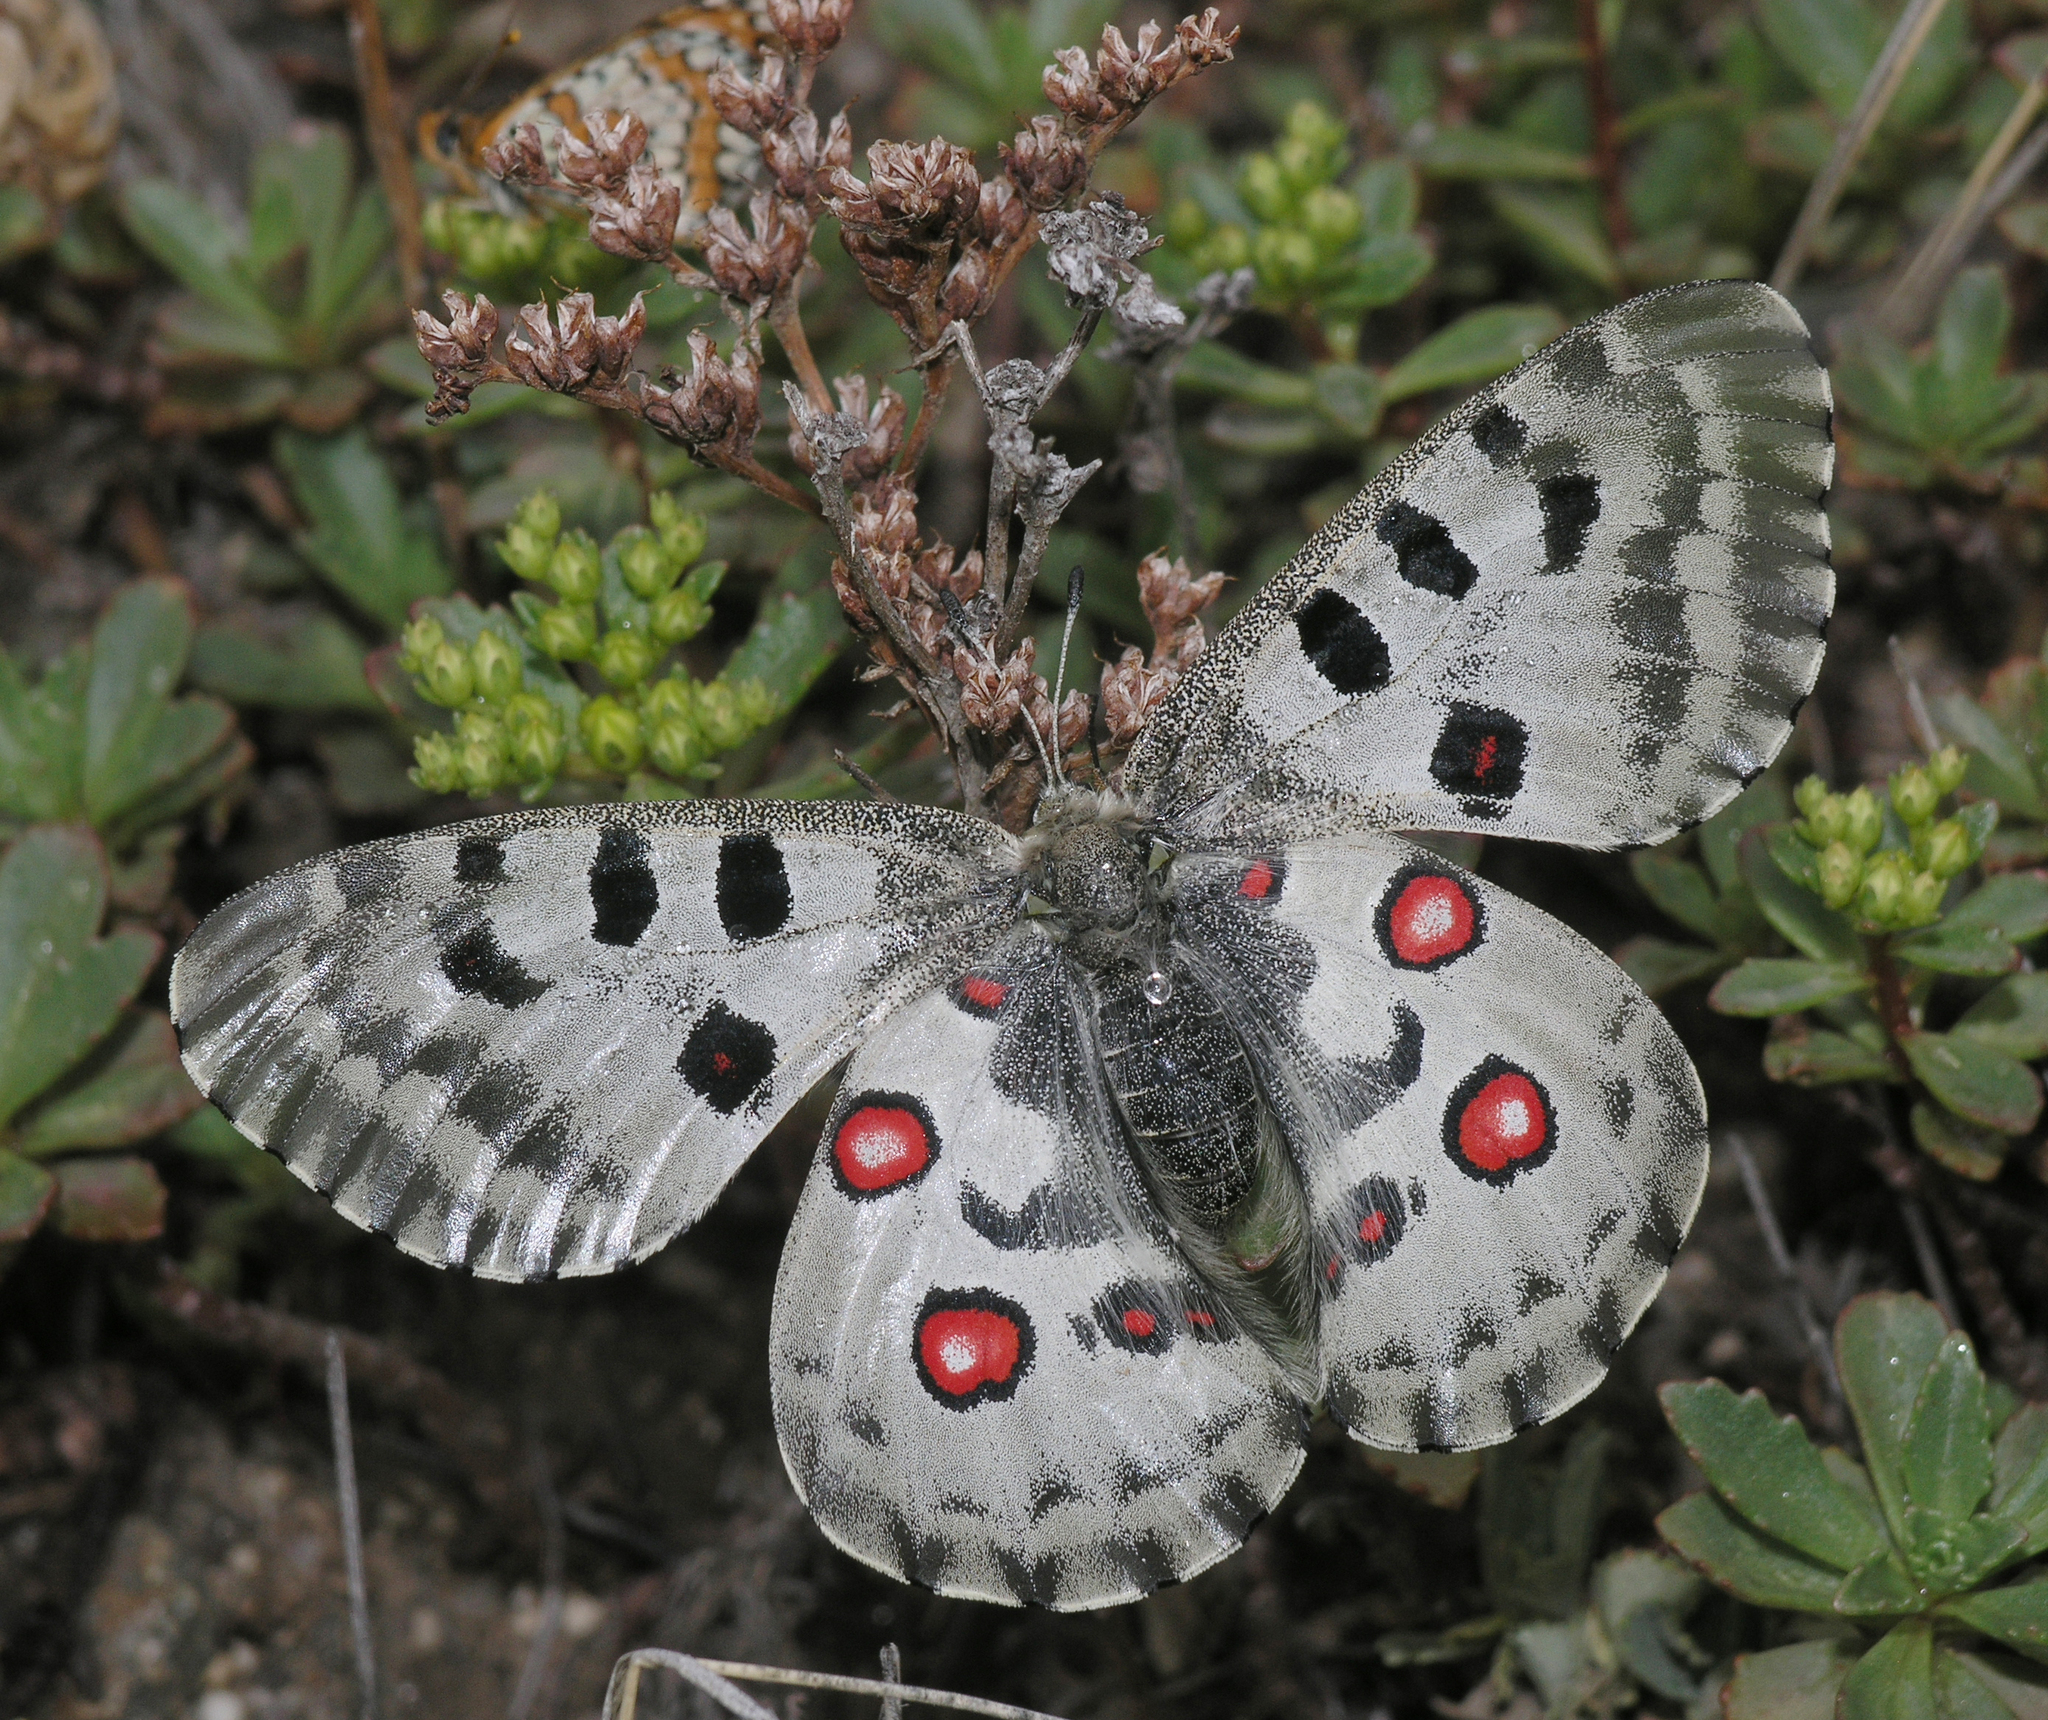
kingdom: Animalia
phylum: Arthropoda
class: Insecta
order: Lepidoptera
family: Papilionidae
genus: Parnassius
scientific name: Parnassius nomion
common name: Nomion apollo
